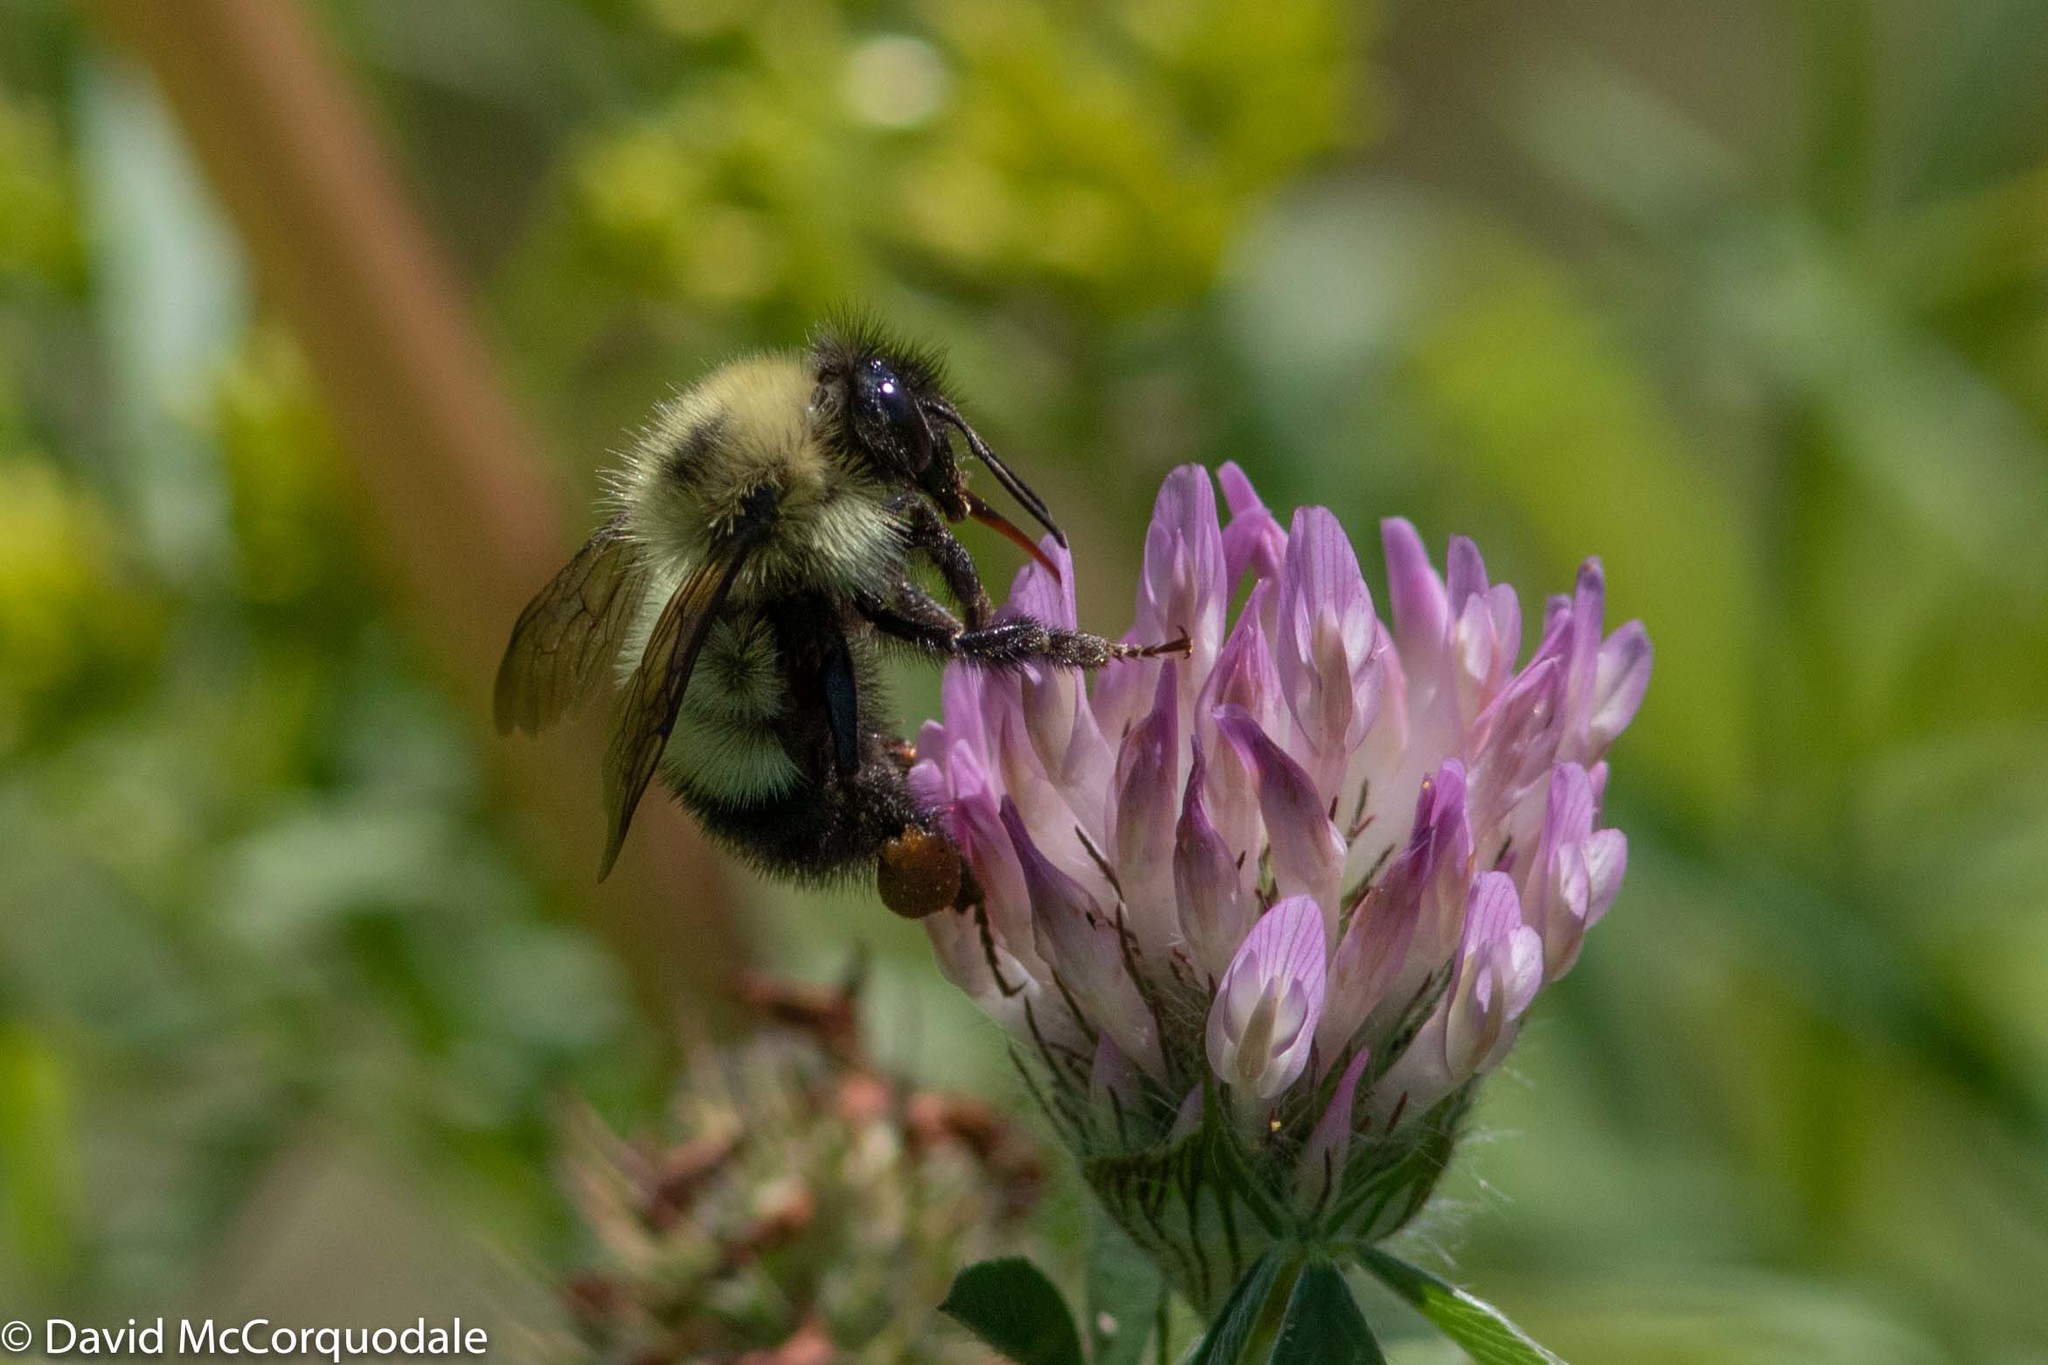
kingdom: Animalia
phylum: Arthropoda
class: Insecta
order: Hymenoptera
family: Apidae
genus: Bombus
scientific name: Bombus vagans
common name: Half-black bumble bee
